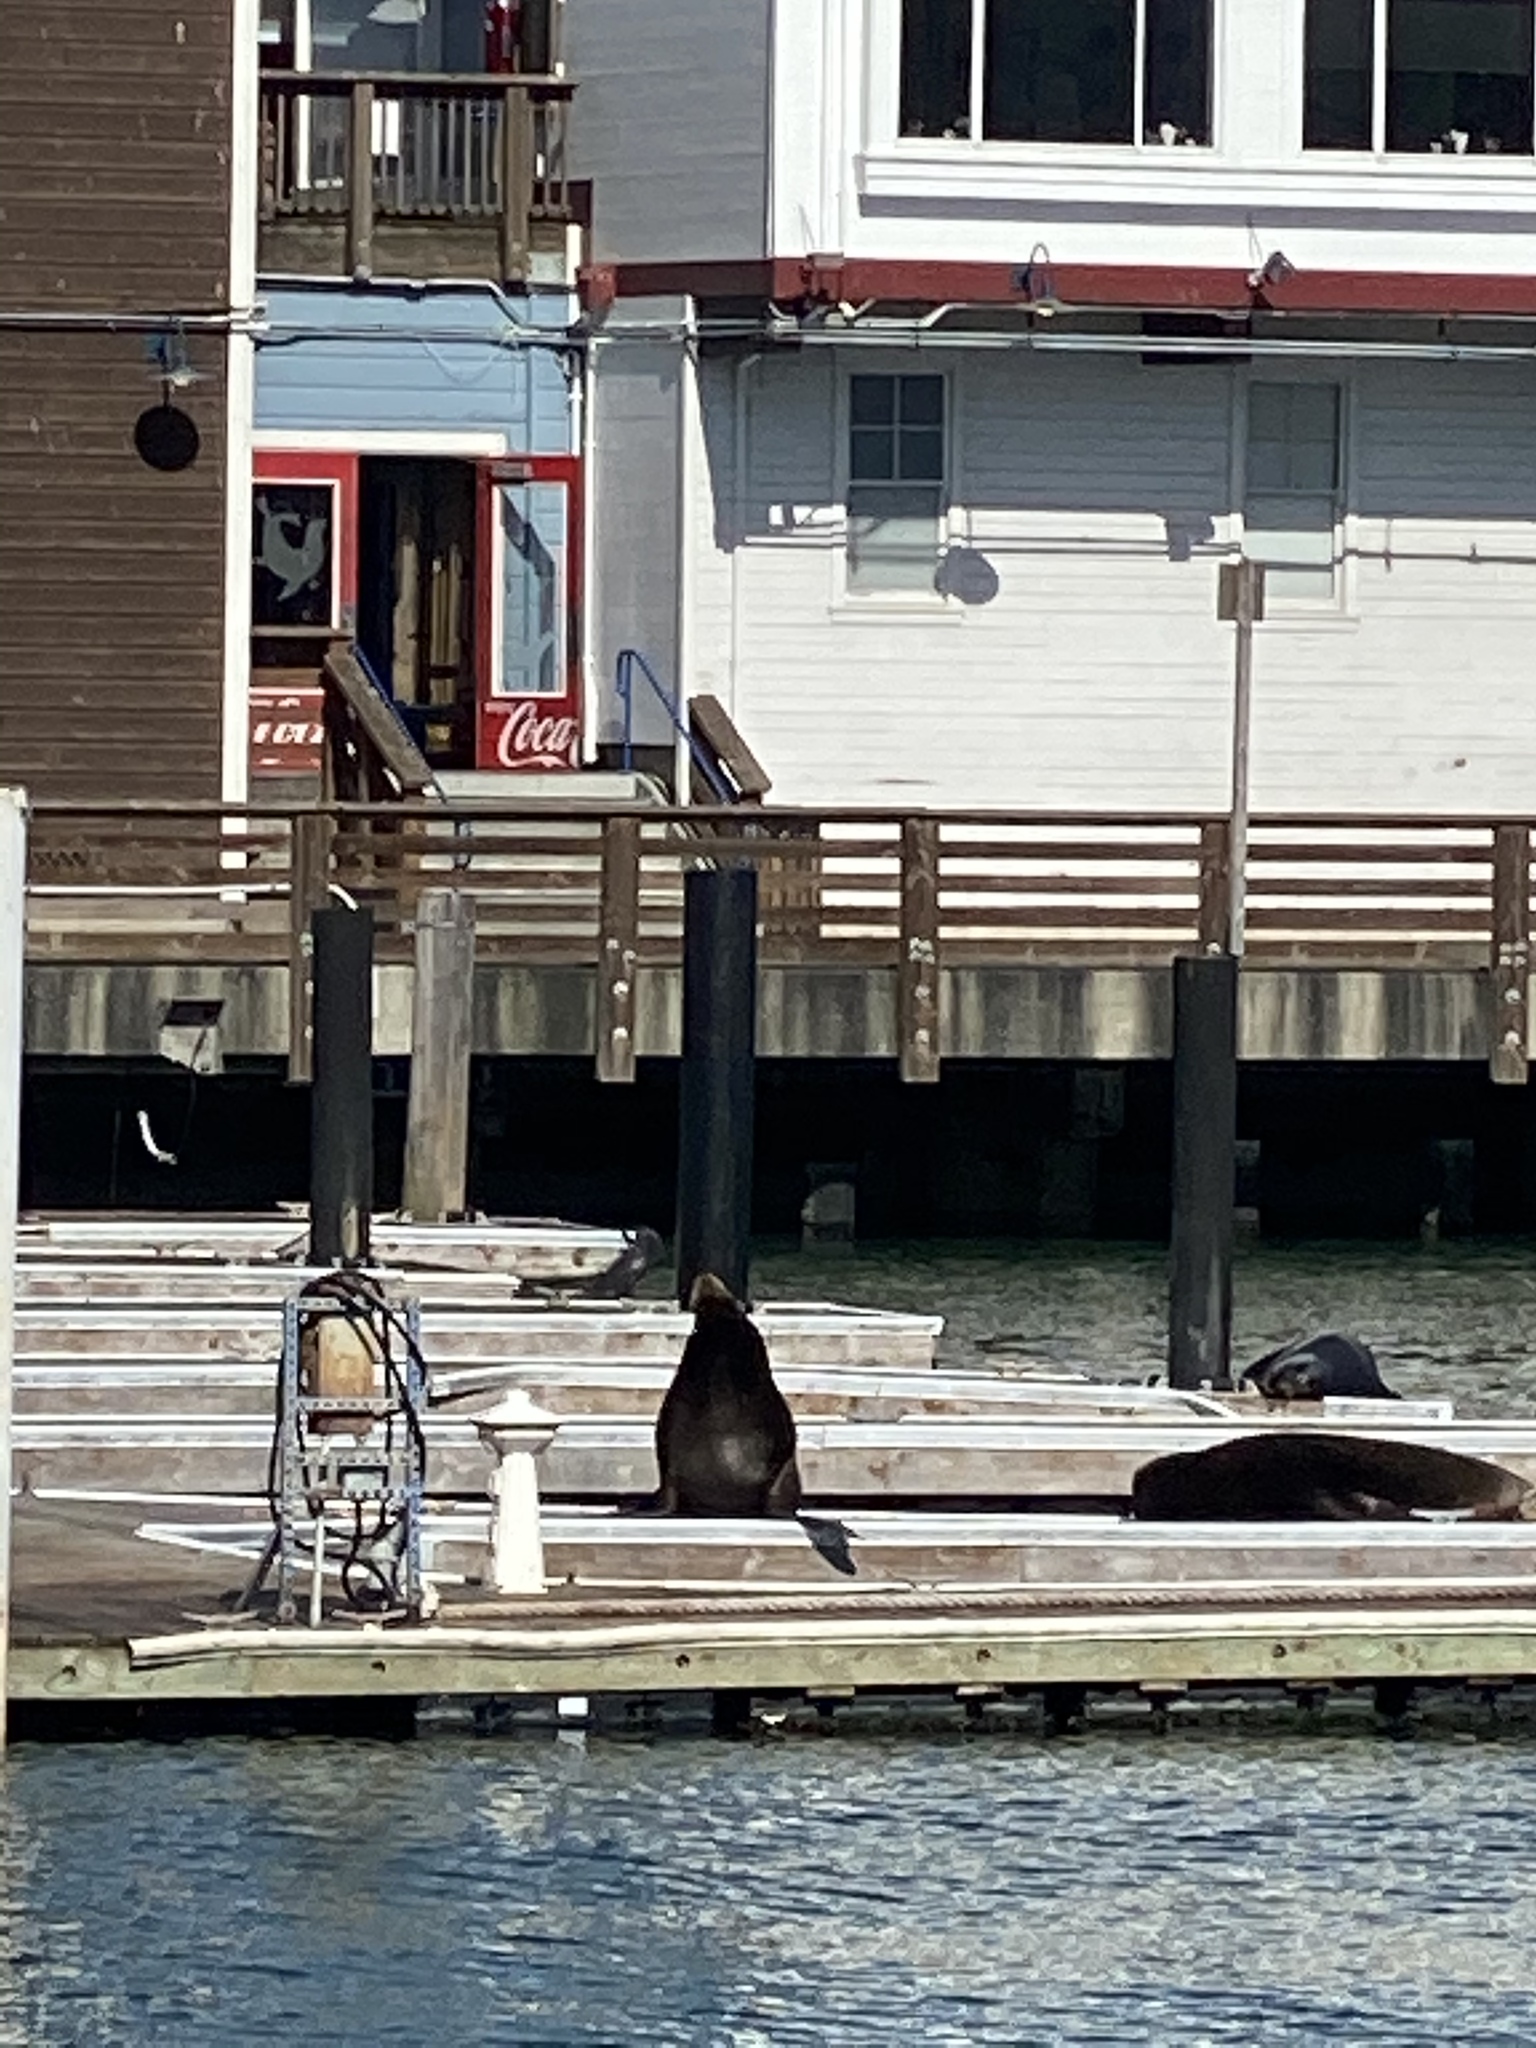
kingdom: Animalia
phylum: Chordata
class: Mammalia
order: Carnivora
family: Otariidae
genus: Zalophus
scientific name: Zalophus californianus
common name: California sea lion
